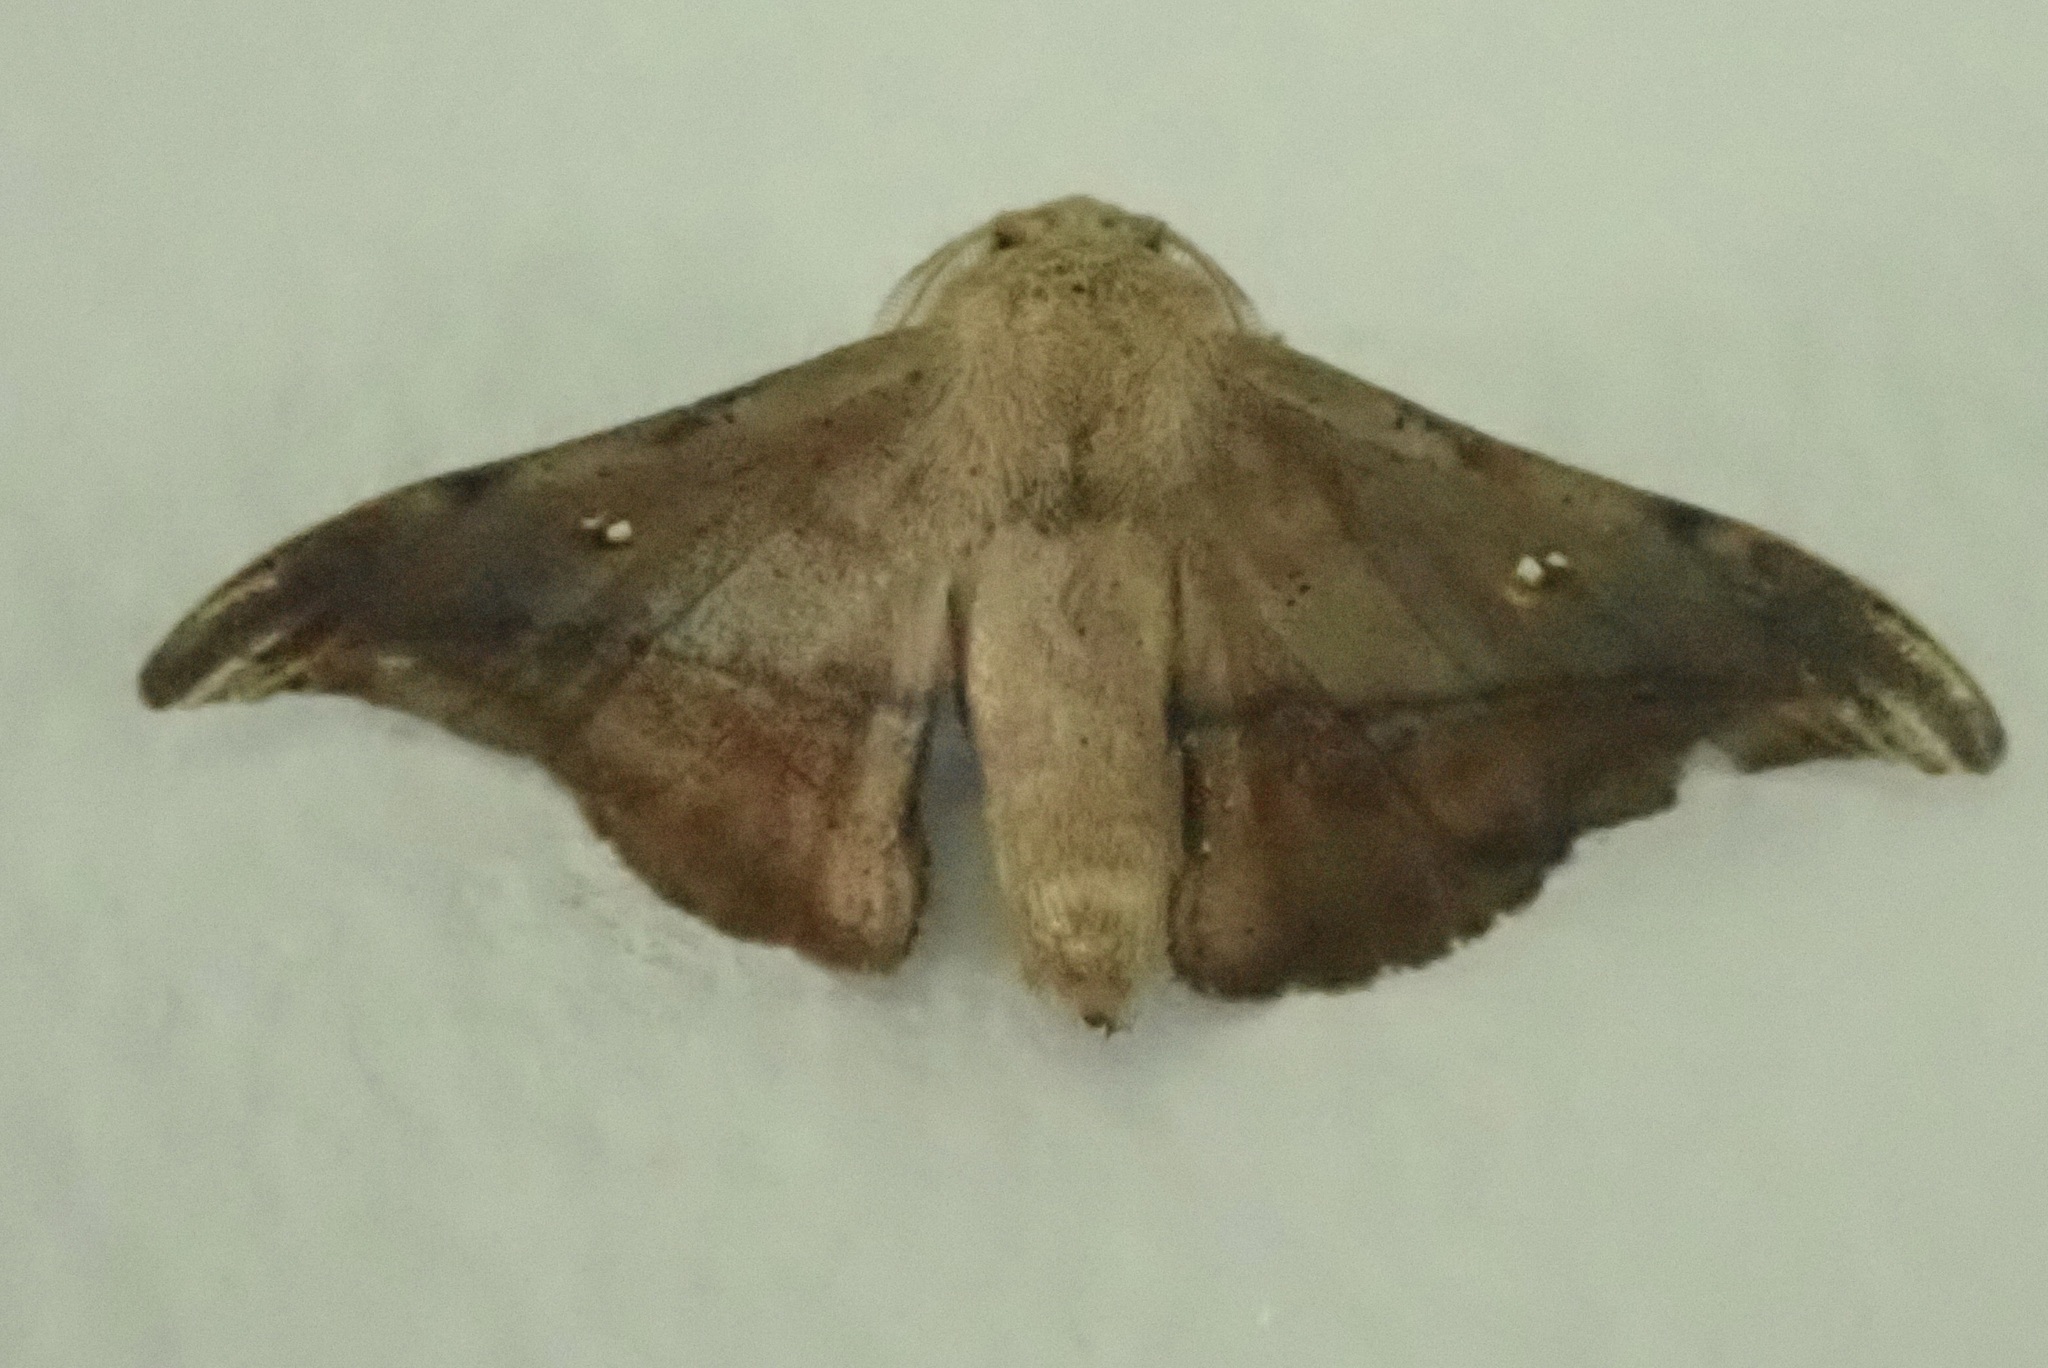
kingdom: Animalia
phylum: Arthropoda
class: Insecta
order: Lepidoptera
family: Mimallonidae
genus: Cicinnus
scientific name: Cicinnus submarcata
